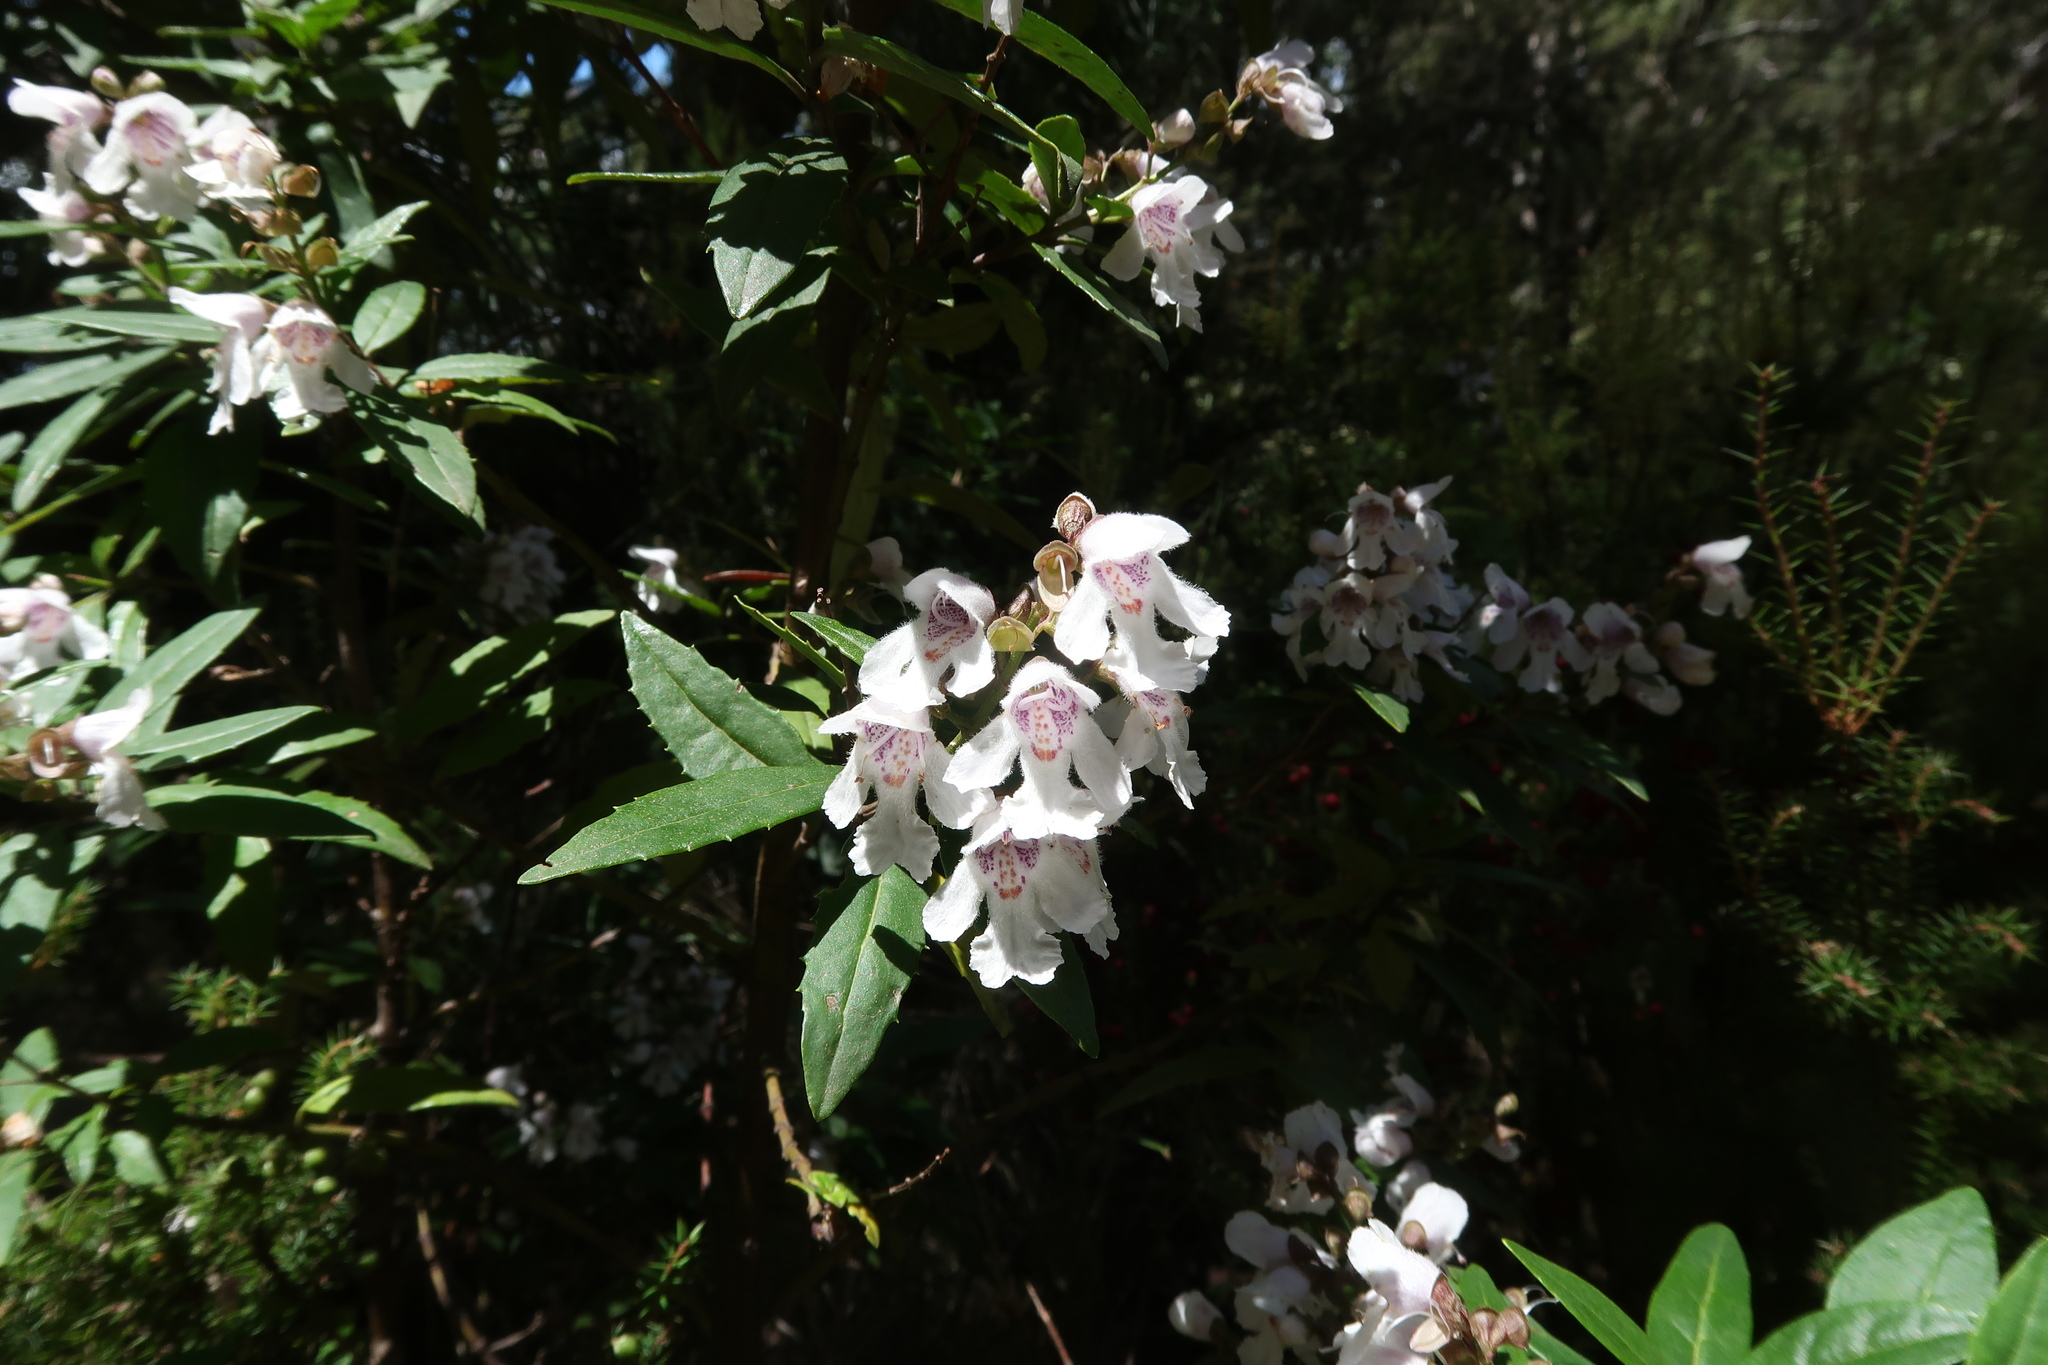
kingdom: Plantae
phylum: Tracheophyta
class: Magnoliopsida
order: Lamiales
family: Lamiaceae
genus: Prostanthera
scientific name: Prostanthera lasianthos
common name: Mountain-lilac
